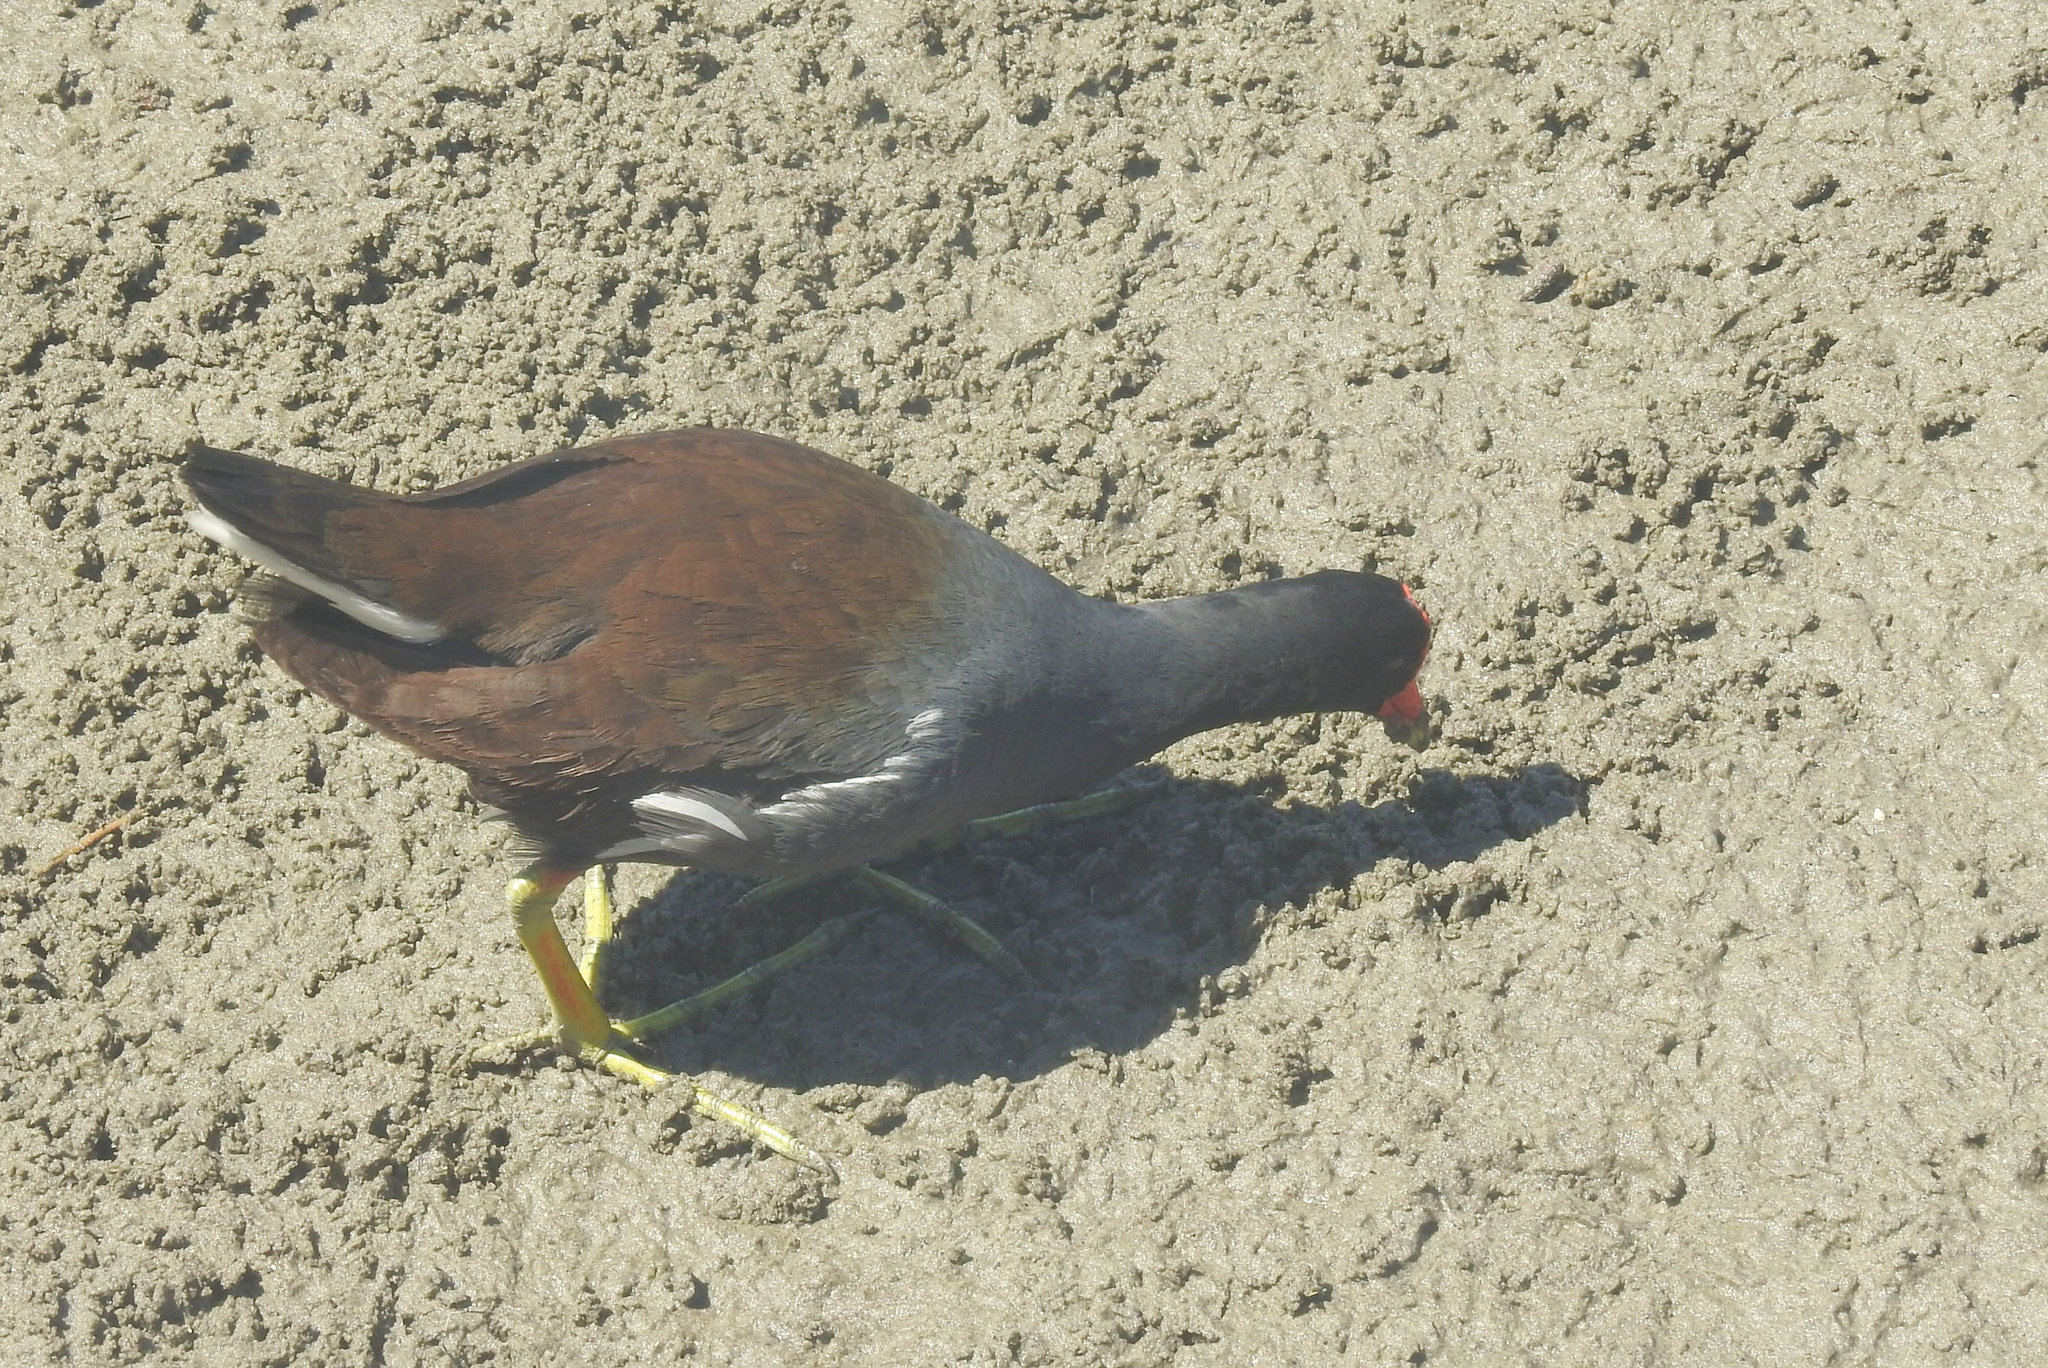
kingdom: Animalia
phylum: Chordata
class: Aves
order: Gruiformes
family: Rallidae
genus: Gallinula
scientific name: Gallinula chloropus
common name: Common moorhen
